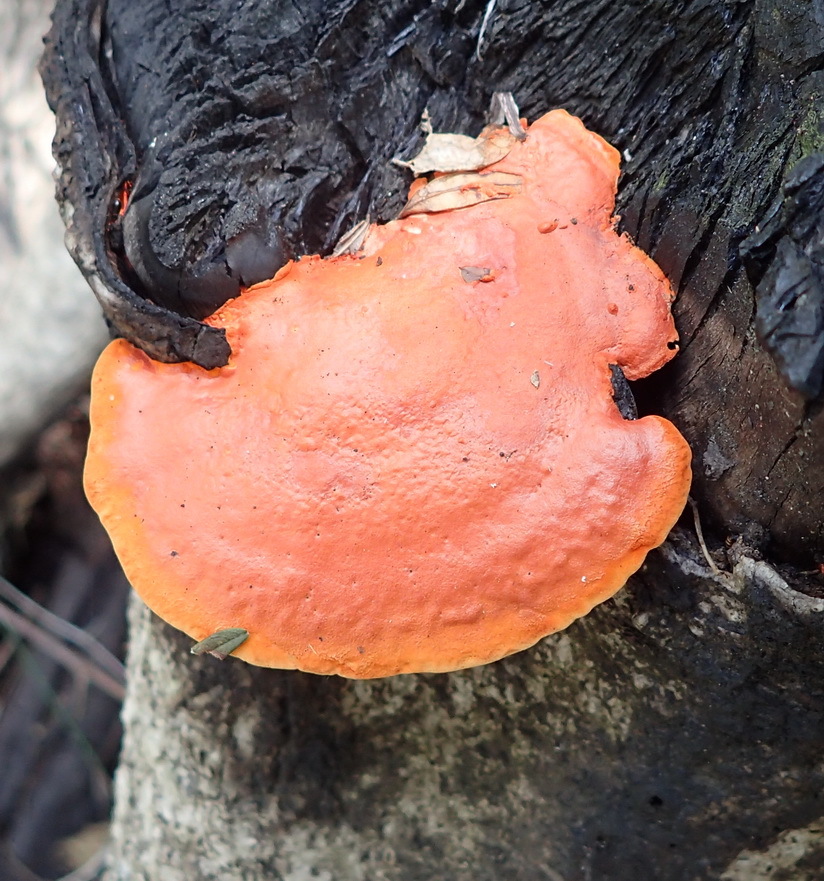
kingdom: Fungi
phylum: Basidiomycota
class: Agaricomycetes
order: Polyporales
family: Polyporaceae
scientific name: Polyporaceae
